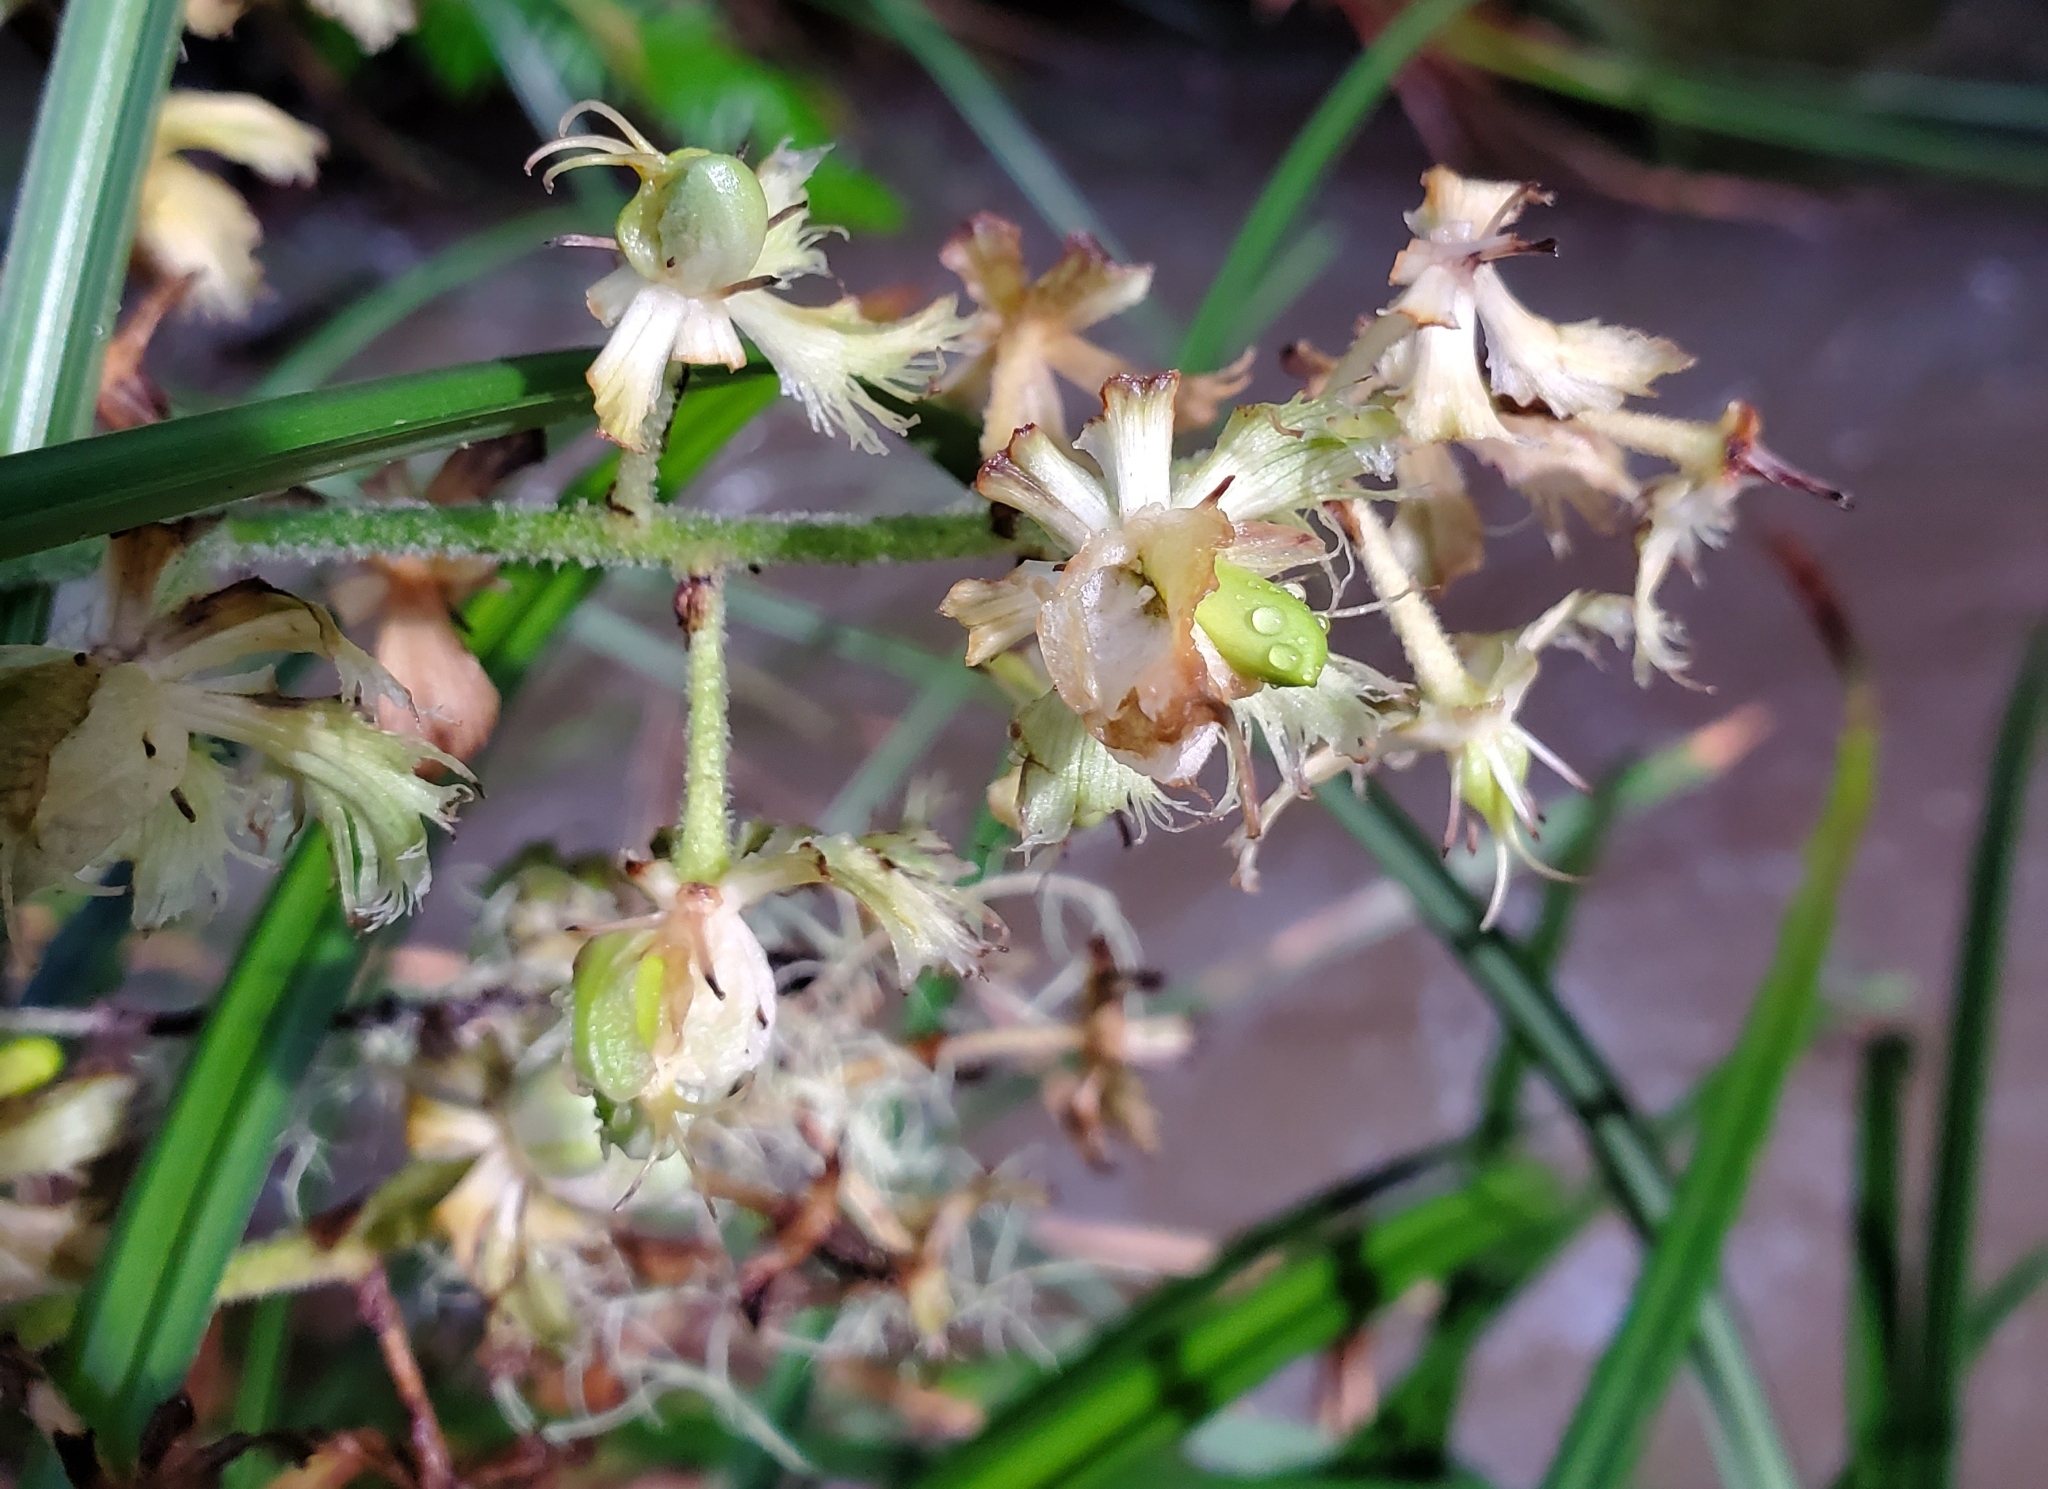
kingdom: Plantae
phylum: Tracheophyta
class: Liliopsida
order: Liliales
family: Melanthiaceae
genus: Veratrum
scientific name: Veratrum fimbriatum
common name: Fringe false hellobore
